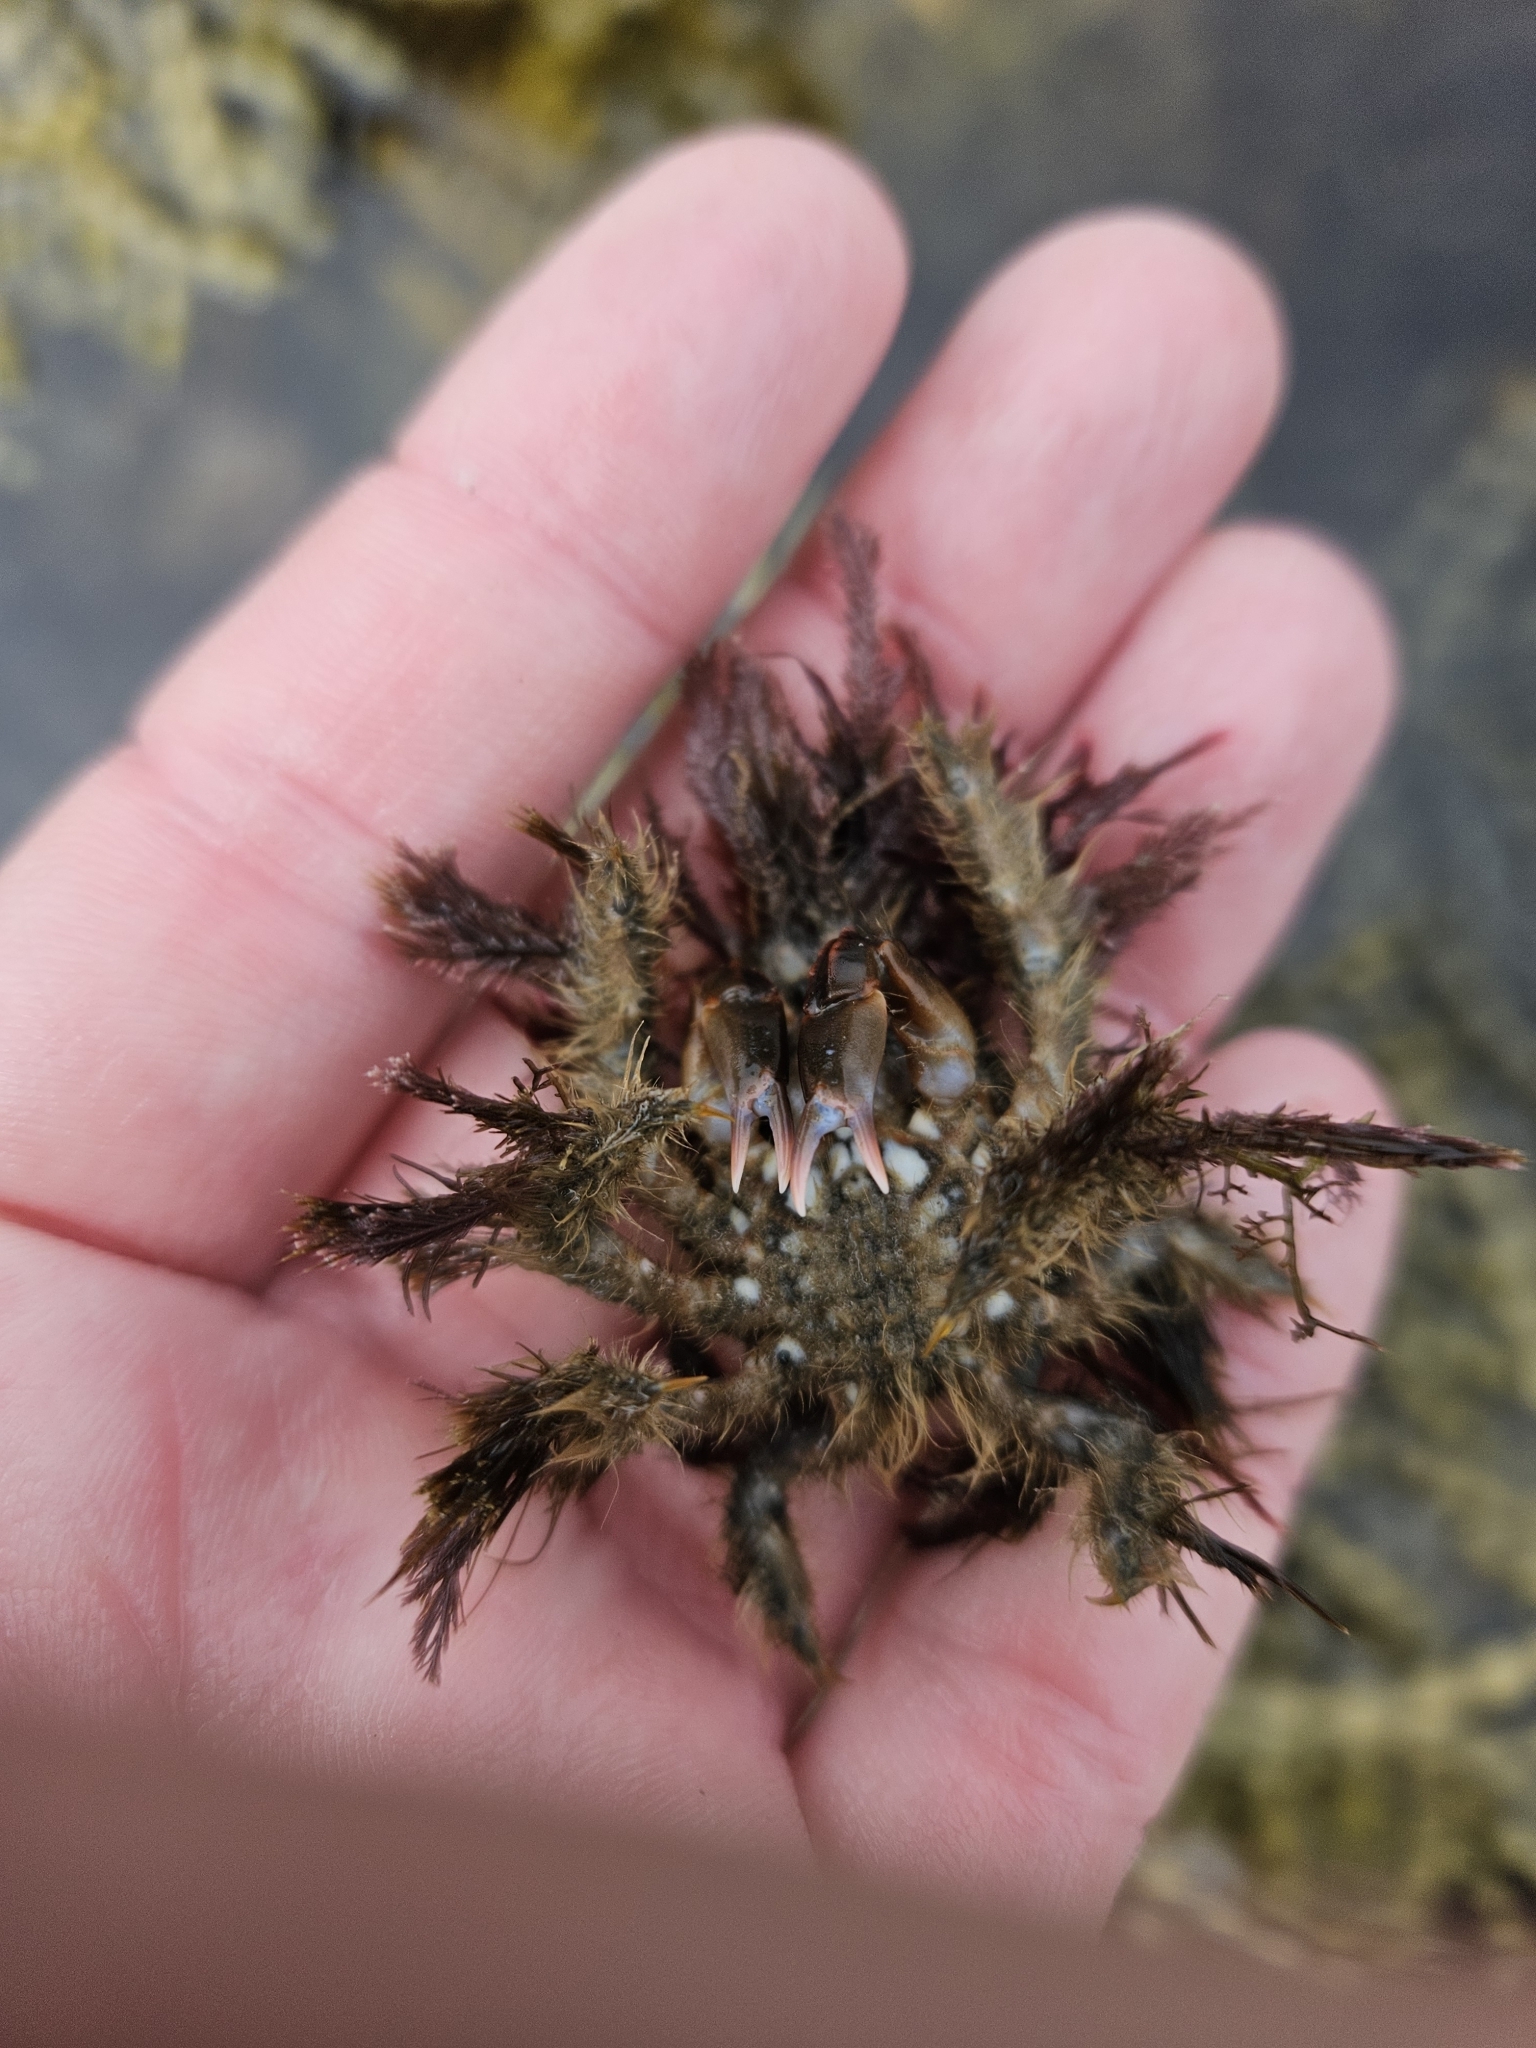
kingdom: Animalia
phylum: Arthropoda
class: Malacostraca
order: Decapoda
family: Majidae
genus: Notomithrax
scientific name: Notomithrax ursus
